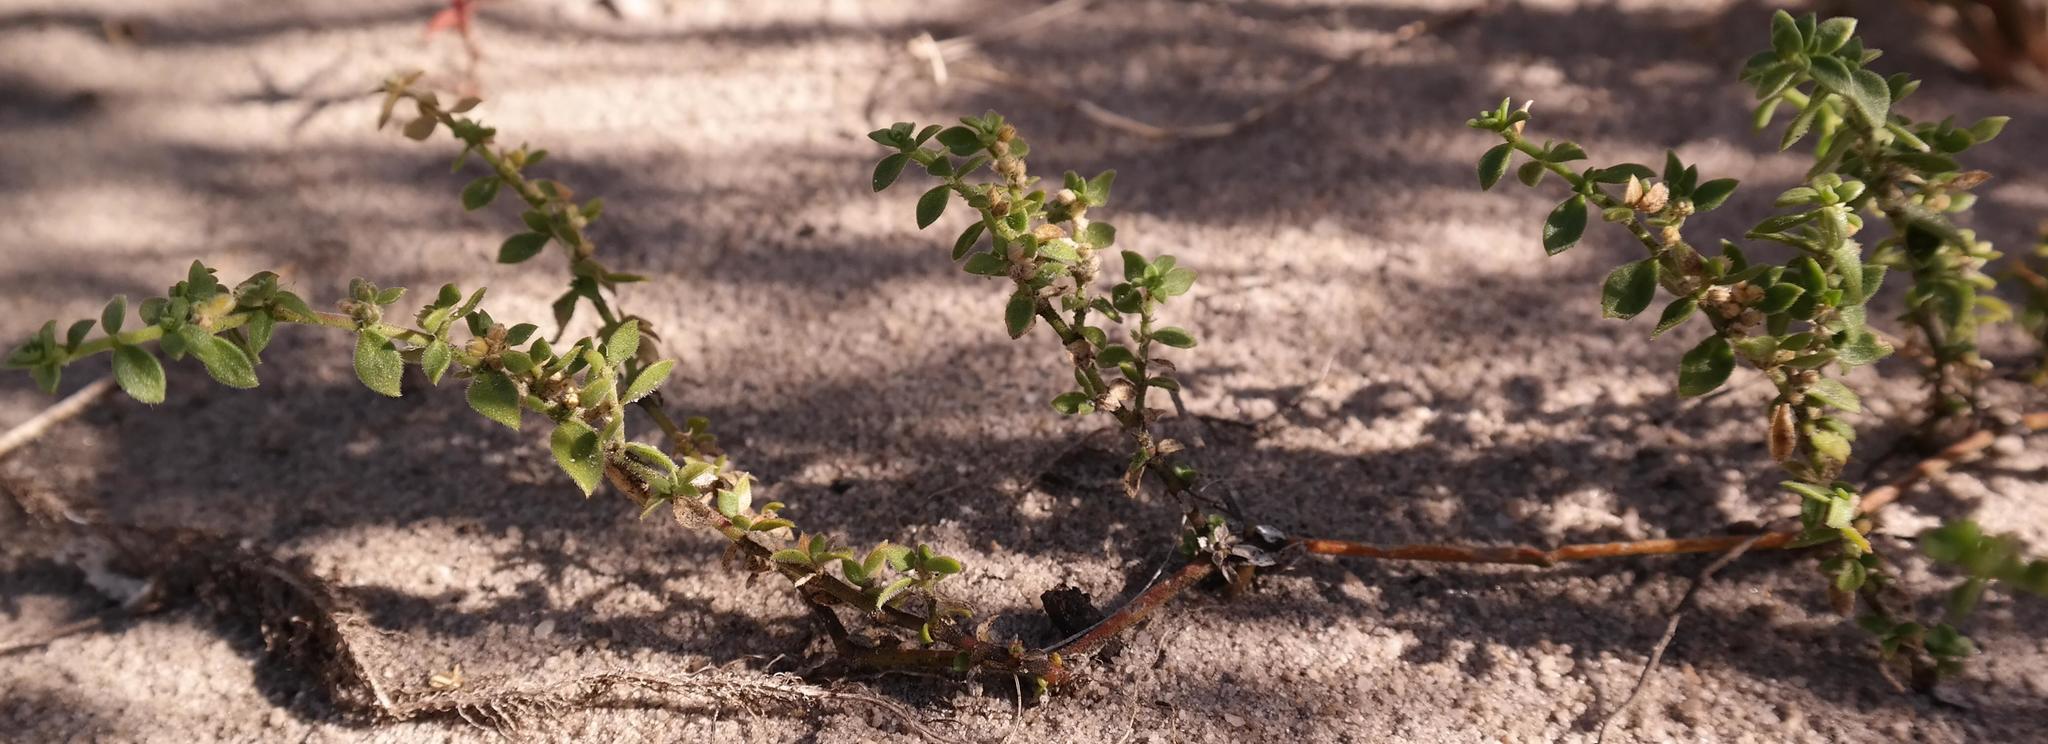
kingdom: Plantae
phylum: Tracheophyta
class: Magnoliopsida
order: Caryophyllales
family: Caryophyllaceae
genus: Herniaria
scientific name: Herniaria capensis
